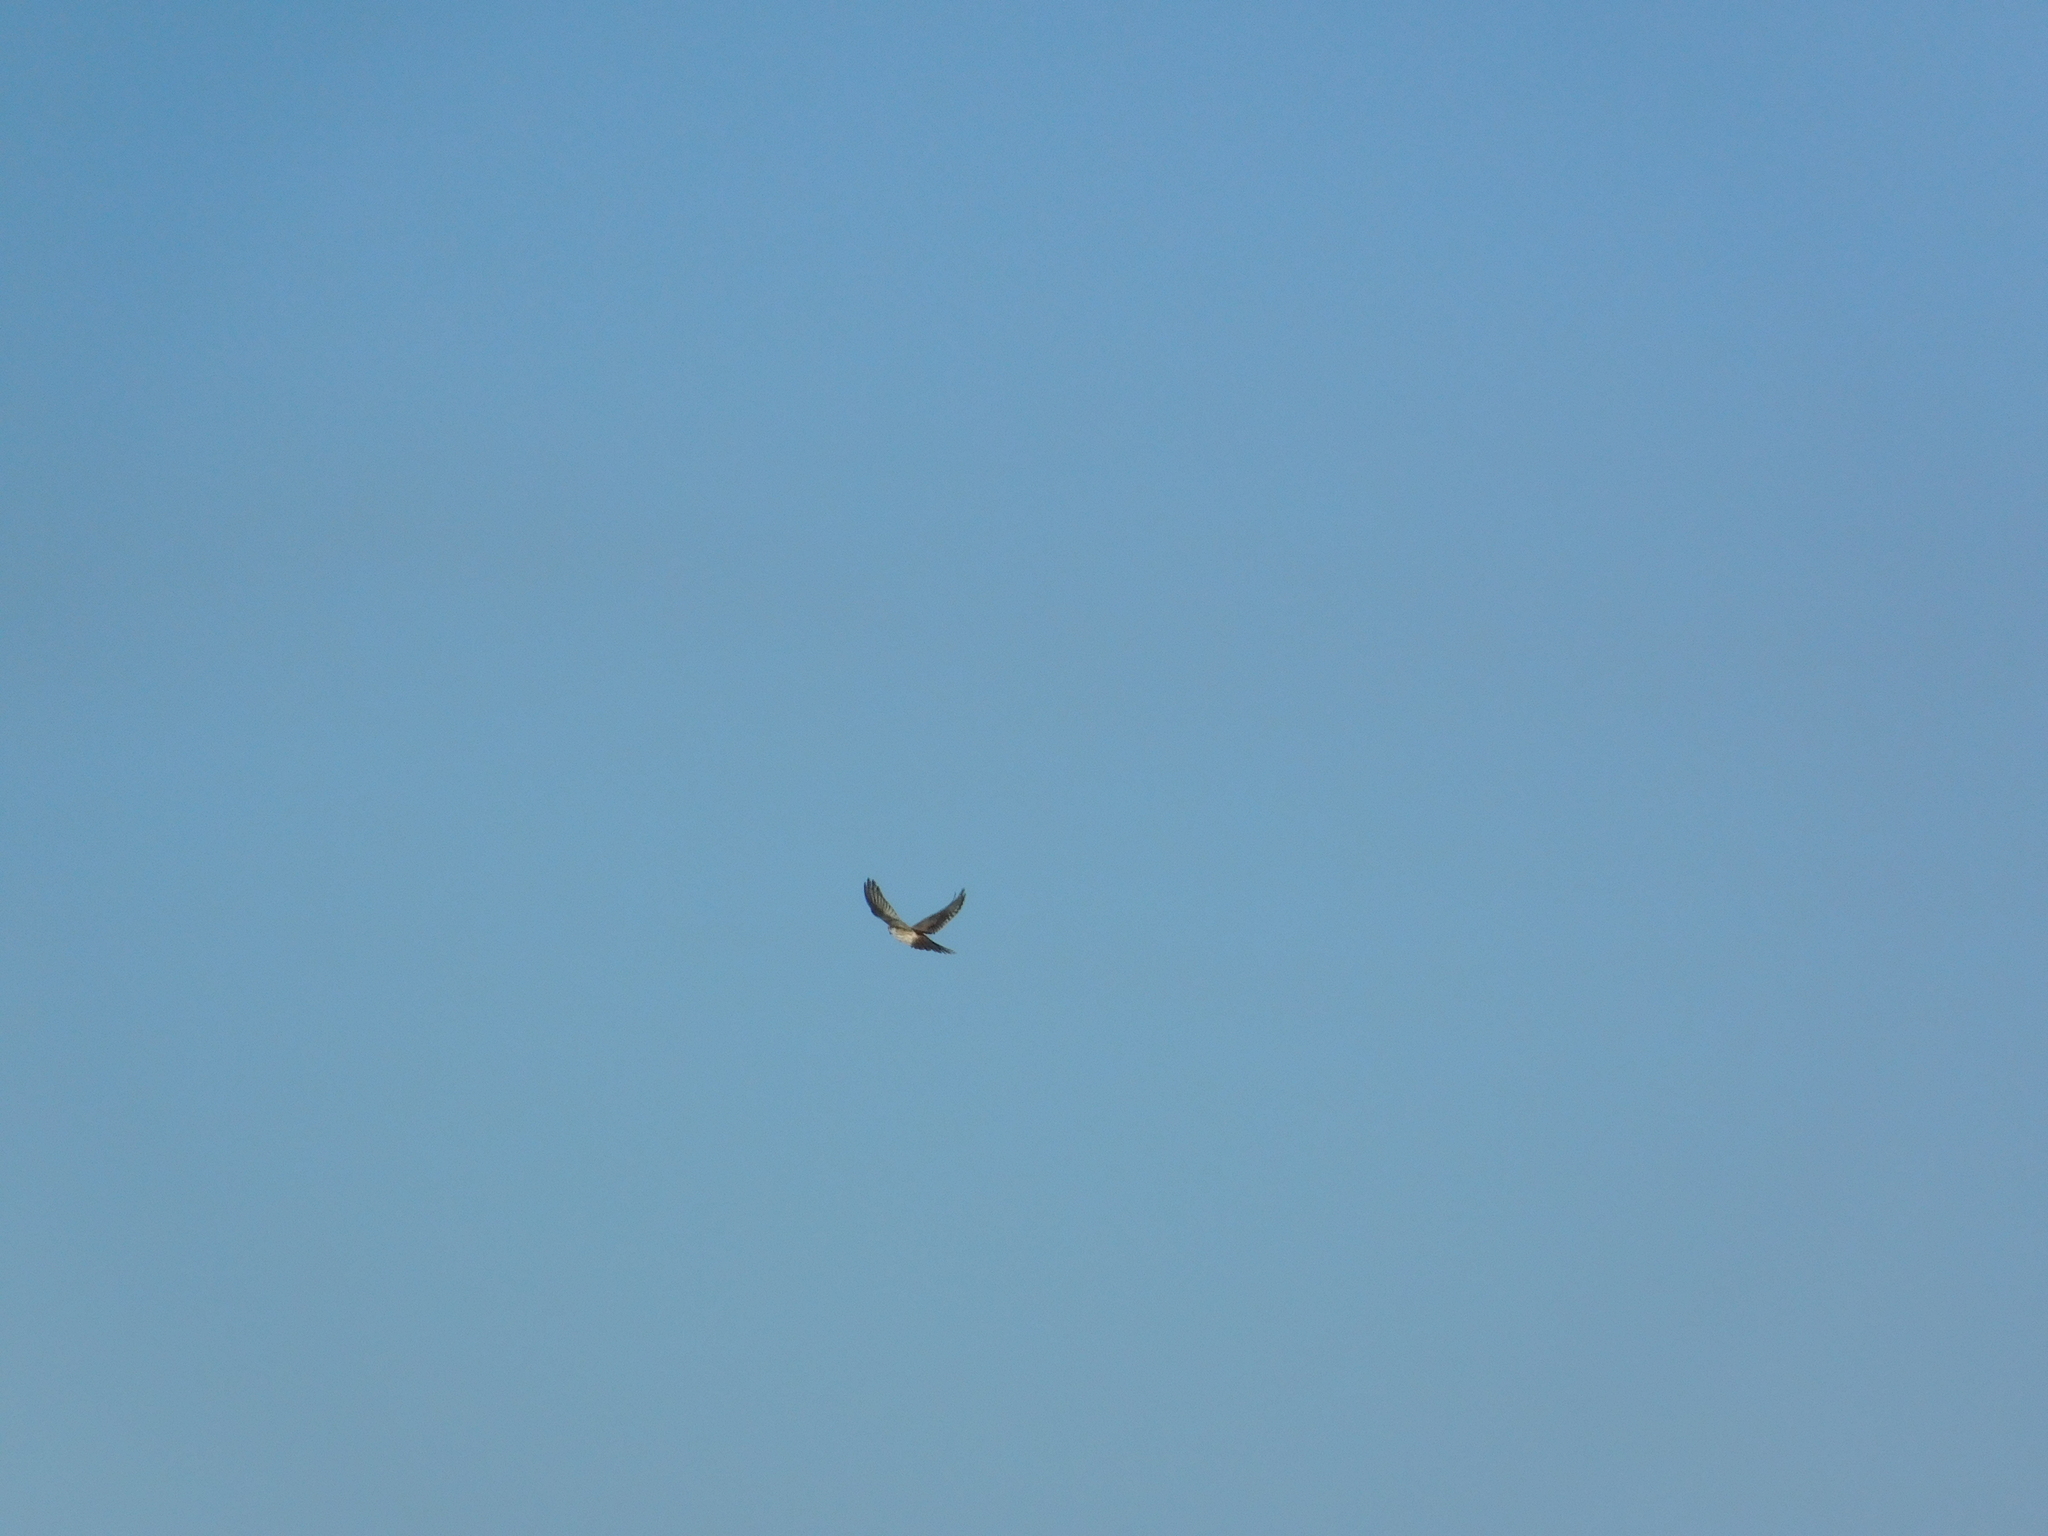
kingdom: Animalia
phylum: Chordata
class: Aves
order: Falconiformes
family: Falconidae
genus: Falco
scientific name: Falco sparverius
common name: American kestrel
